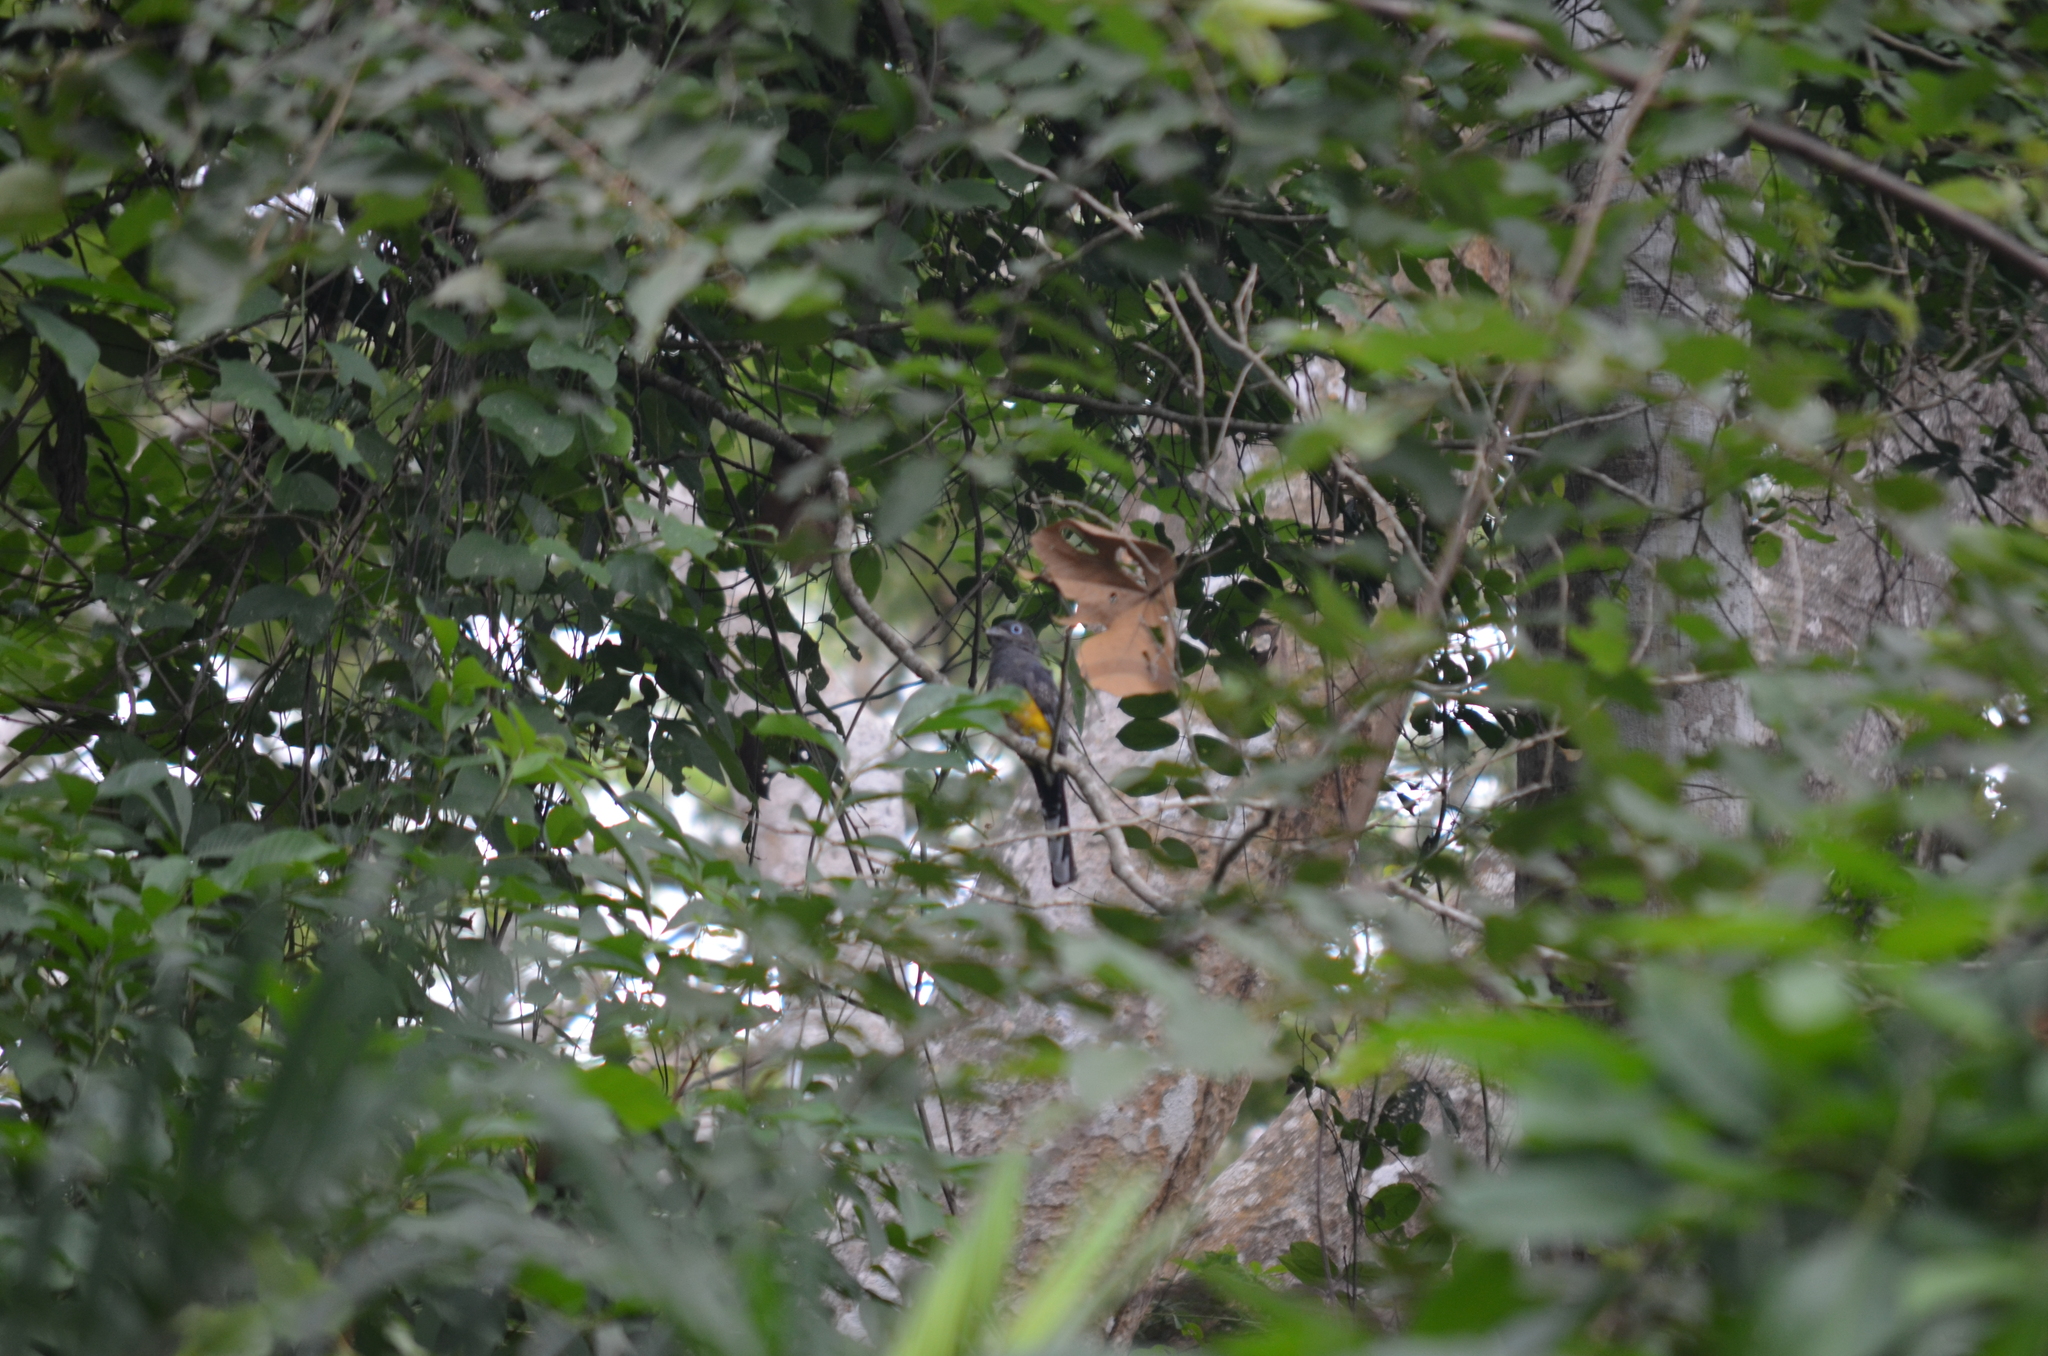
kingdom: Animalia
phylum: Chordata
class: Aves
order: Trogoniformes
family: Trogonidae
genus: Trogon
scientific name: Trogon melanocephalus
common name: Black-headed trogon
